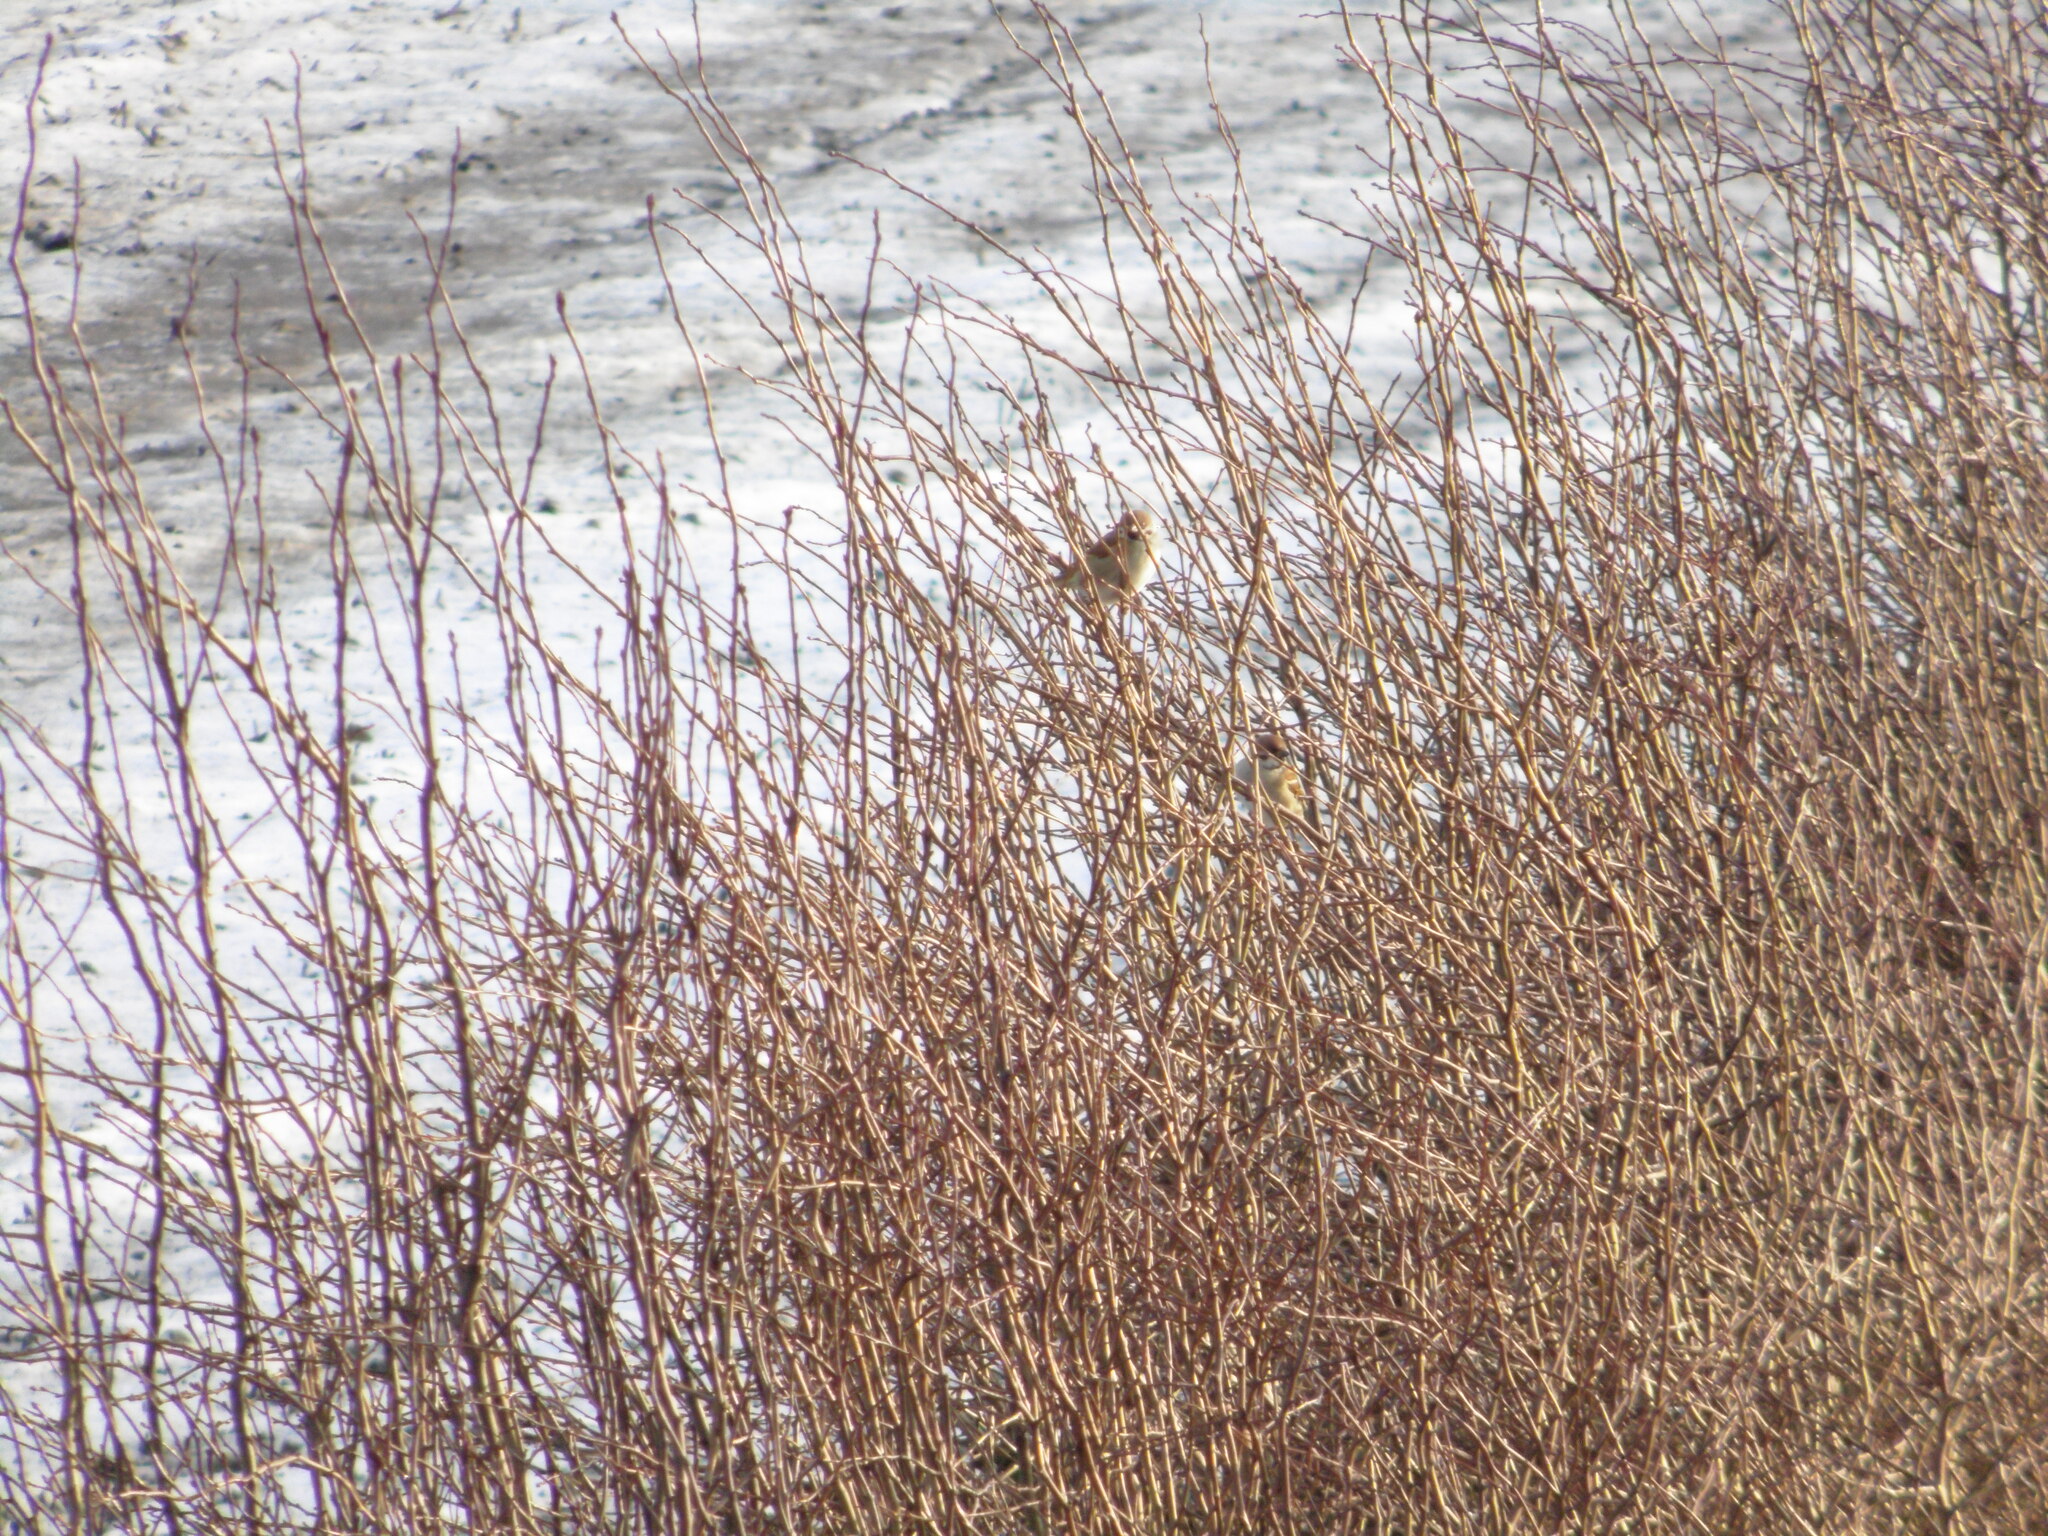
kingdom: Animalia
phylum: Chordata
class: Aves
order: Passeriformes
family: Passeridae
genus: Passer
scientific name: Passer montanus
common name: Eurasian tree sparrow
